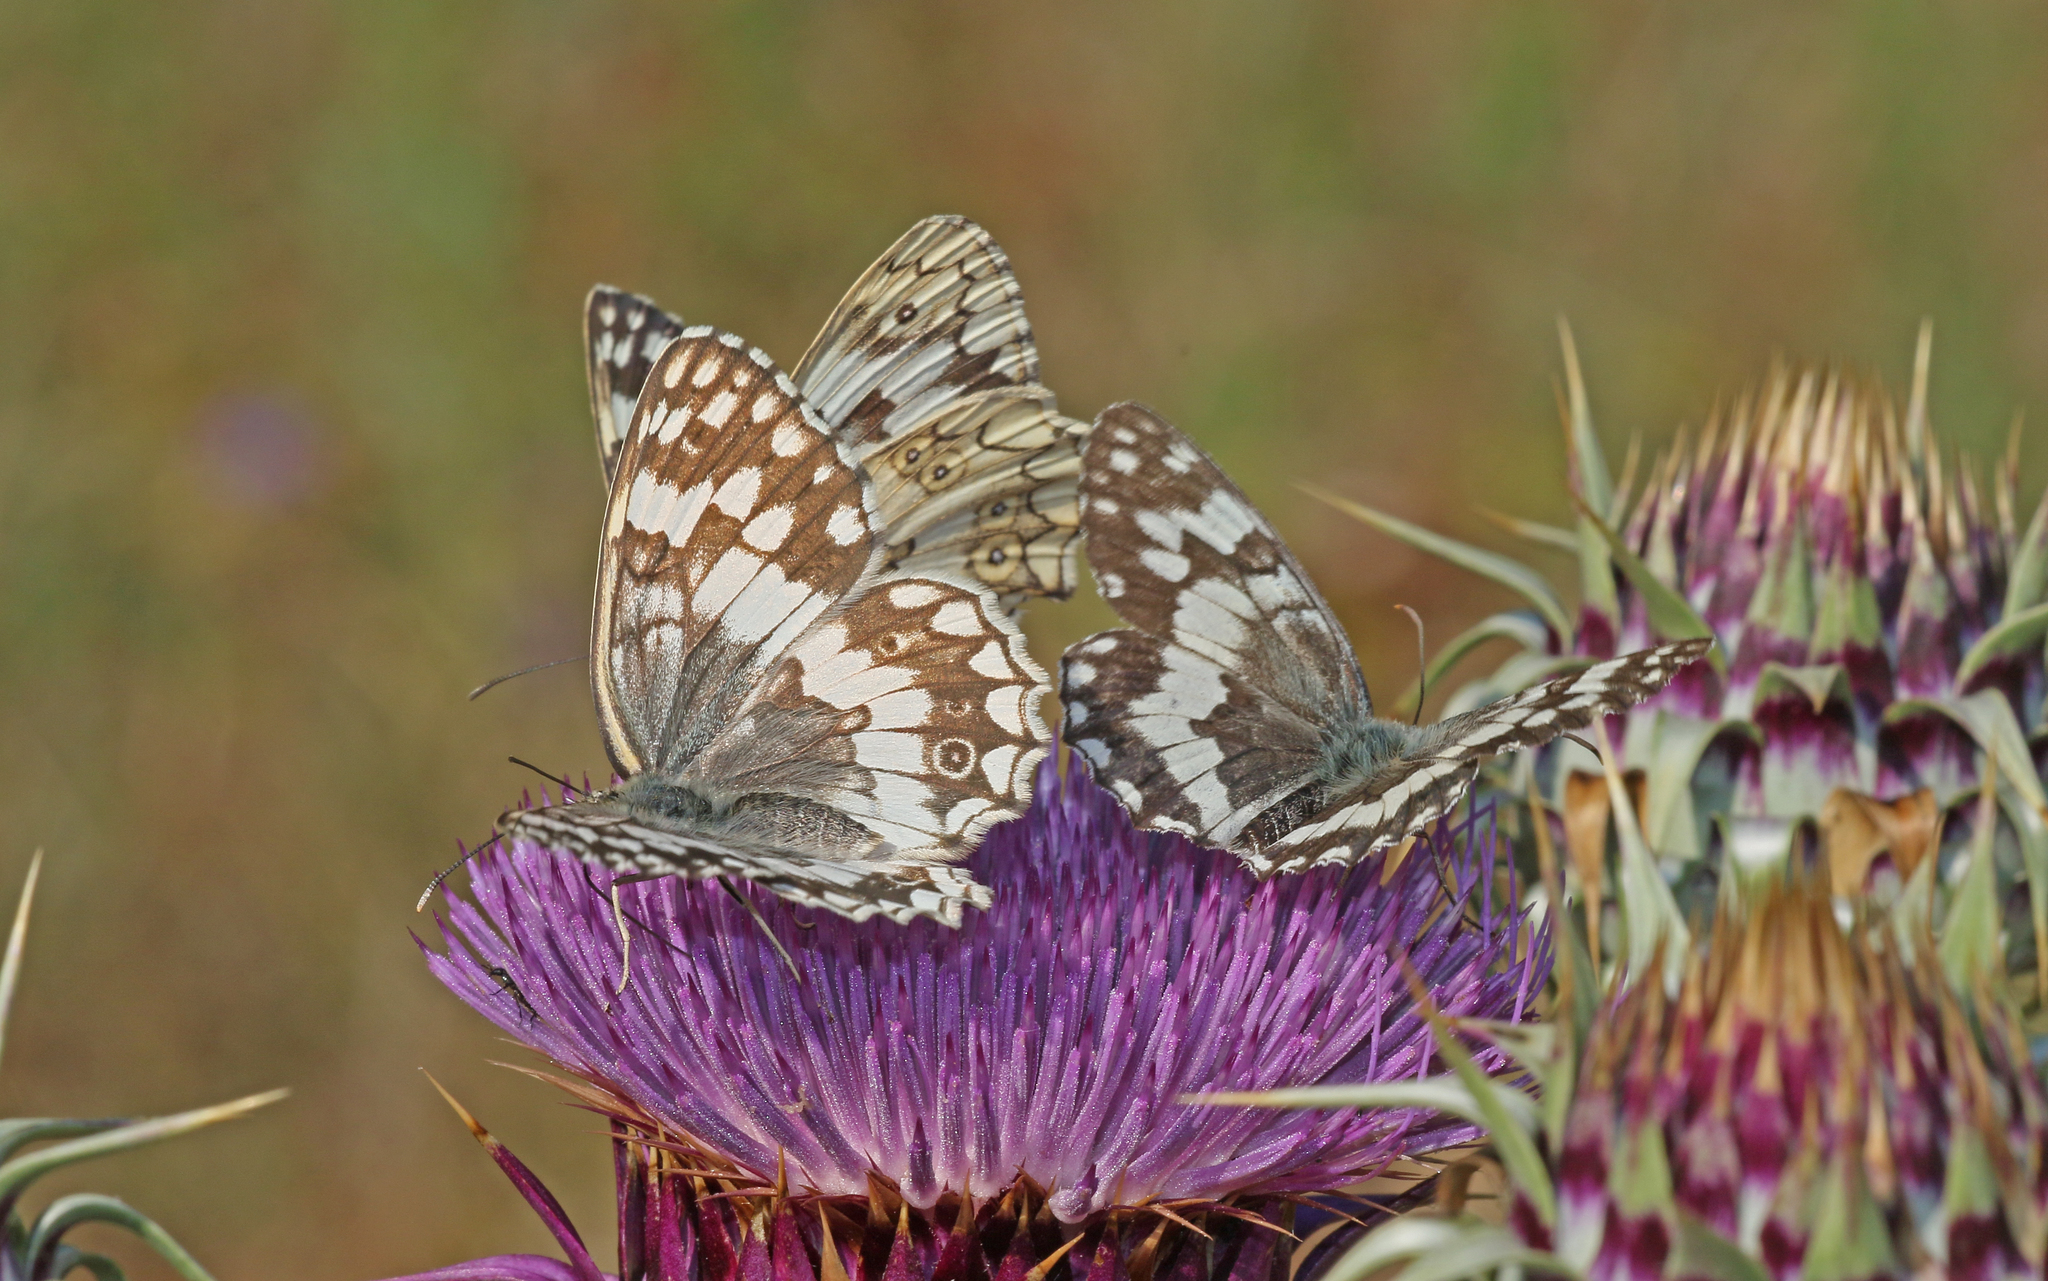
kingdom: Animalia
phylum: Arthropoda
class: Insecta
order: Lepidoptera
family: Nymphalidae
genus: Melanargia
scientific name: Melanargia larissa
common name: Balkan marbled white
